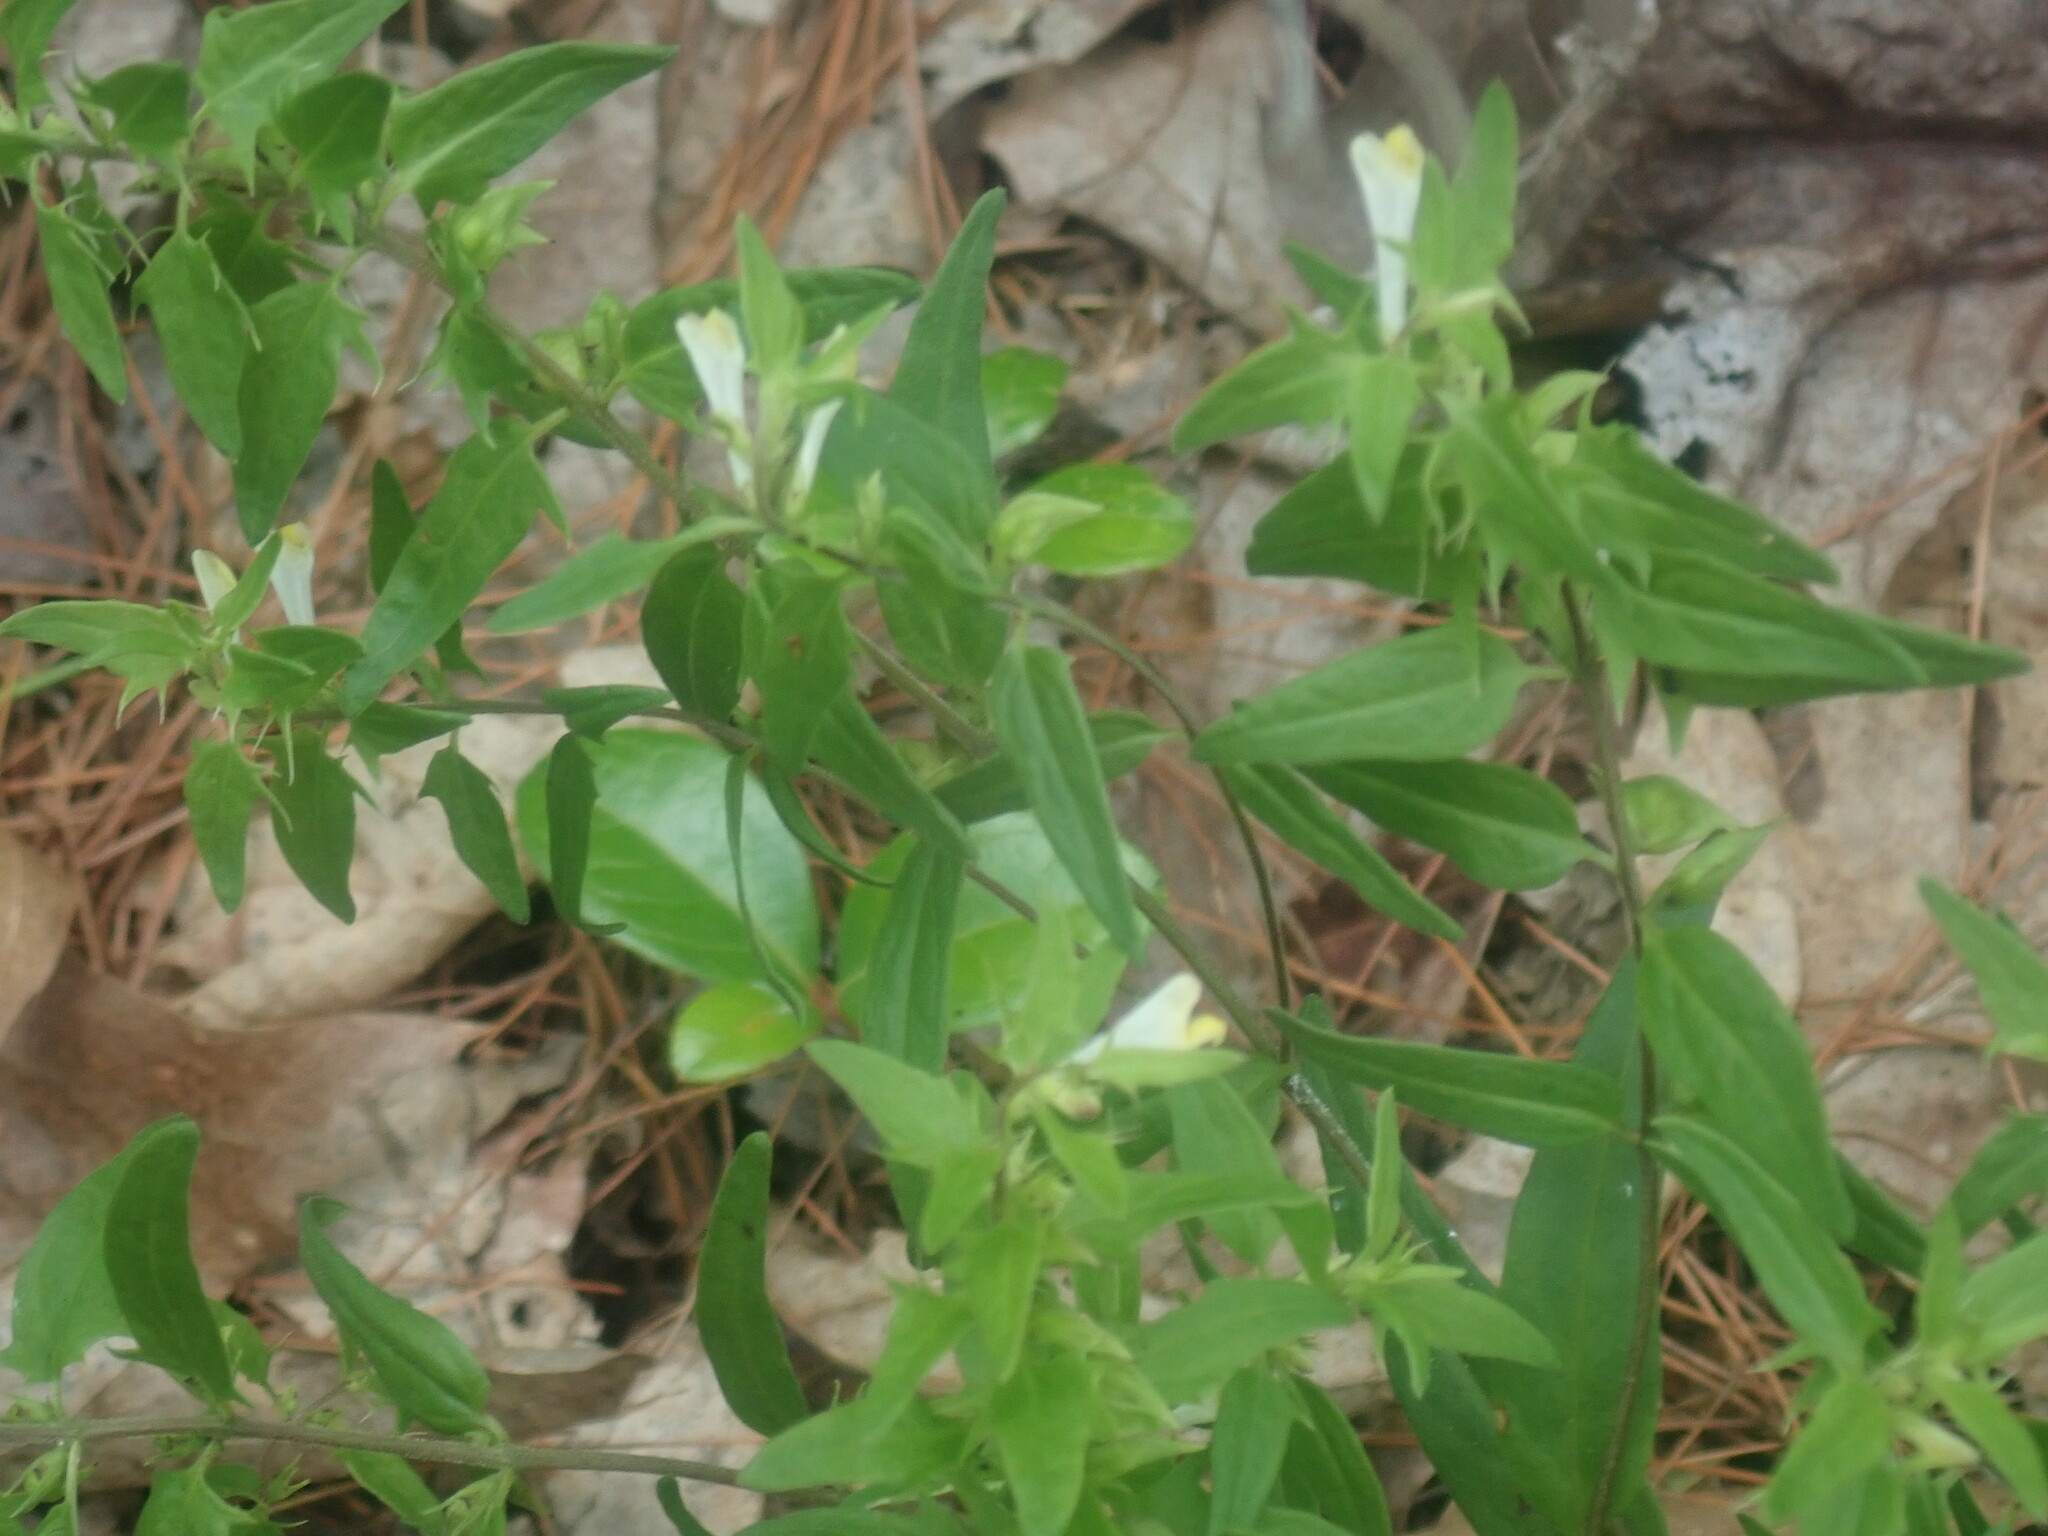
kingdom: Plantae
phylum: Tracheophyta
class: Magnoliopsida
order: Lamiales
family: Orobanchaceae
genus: Melampyrum
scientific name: Melampyrum lineare
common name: American cow-wheat
